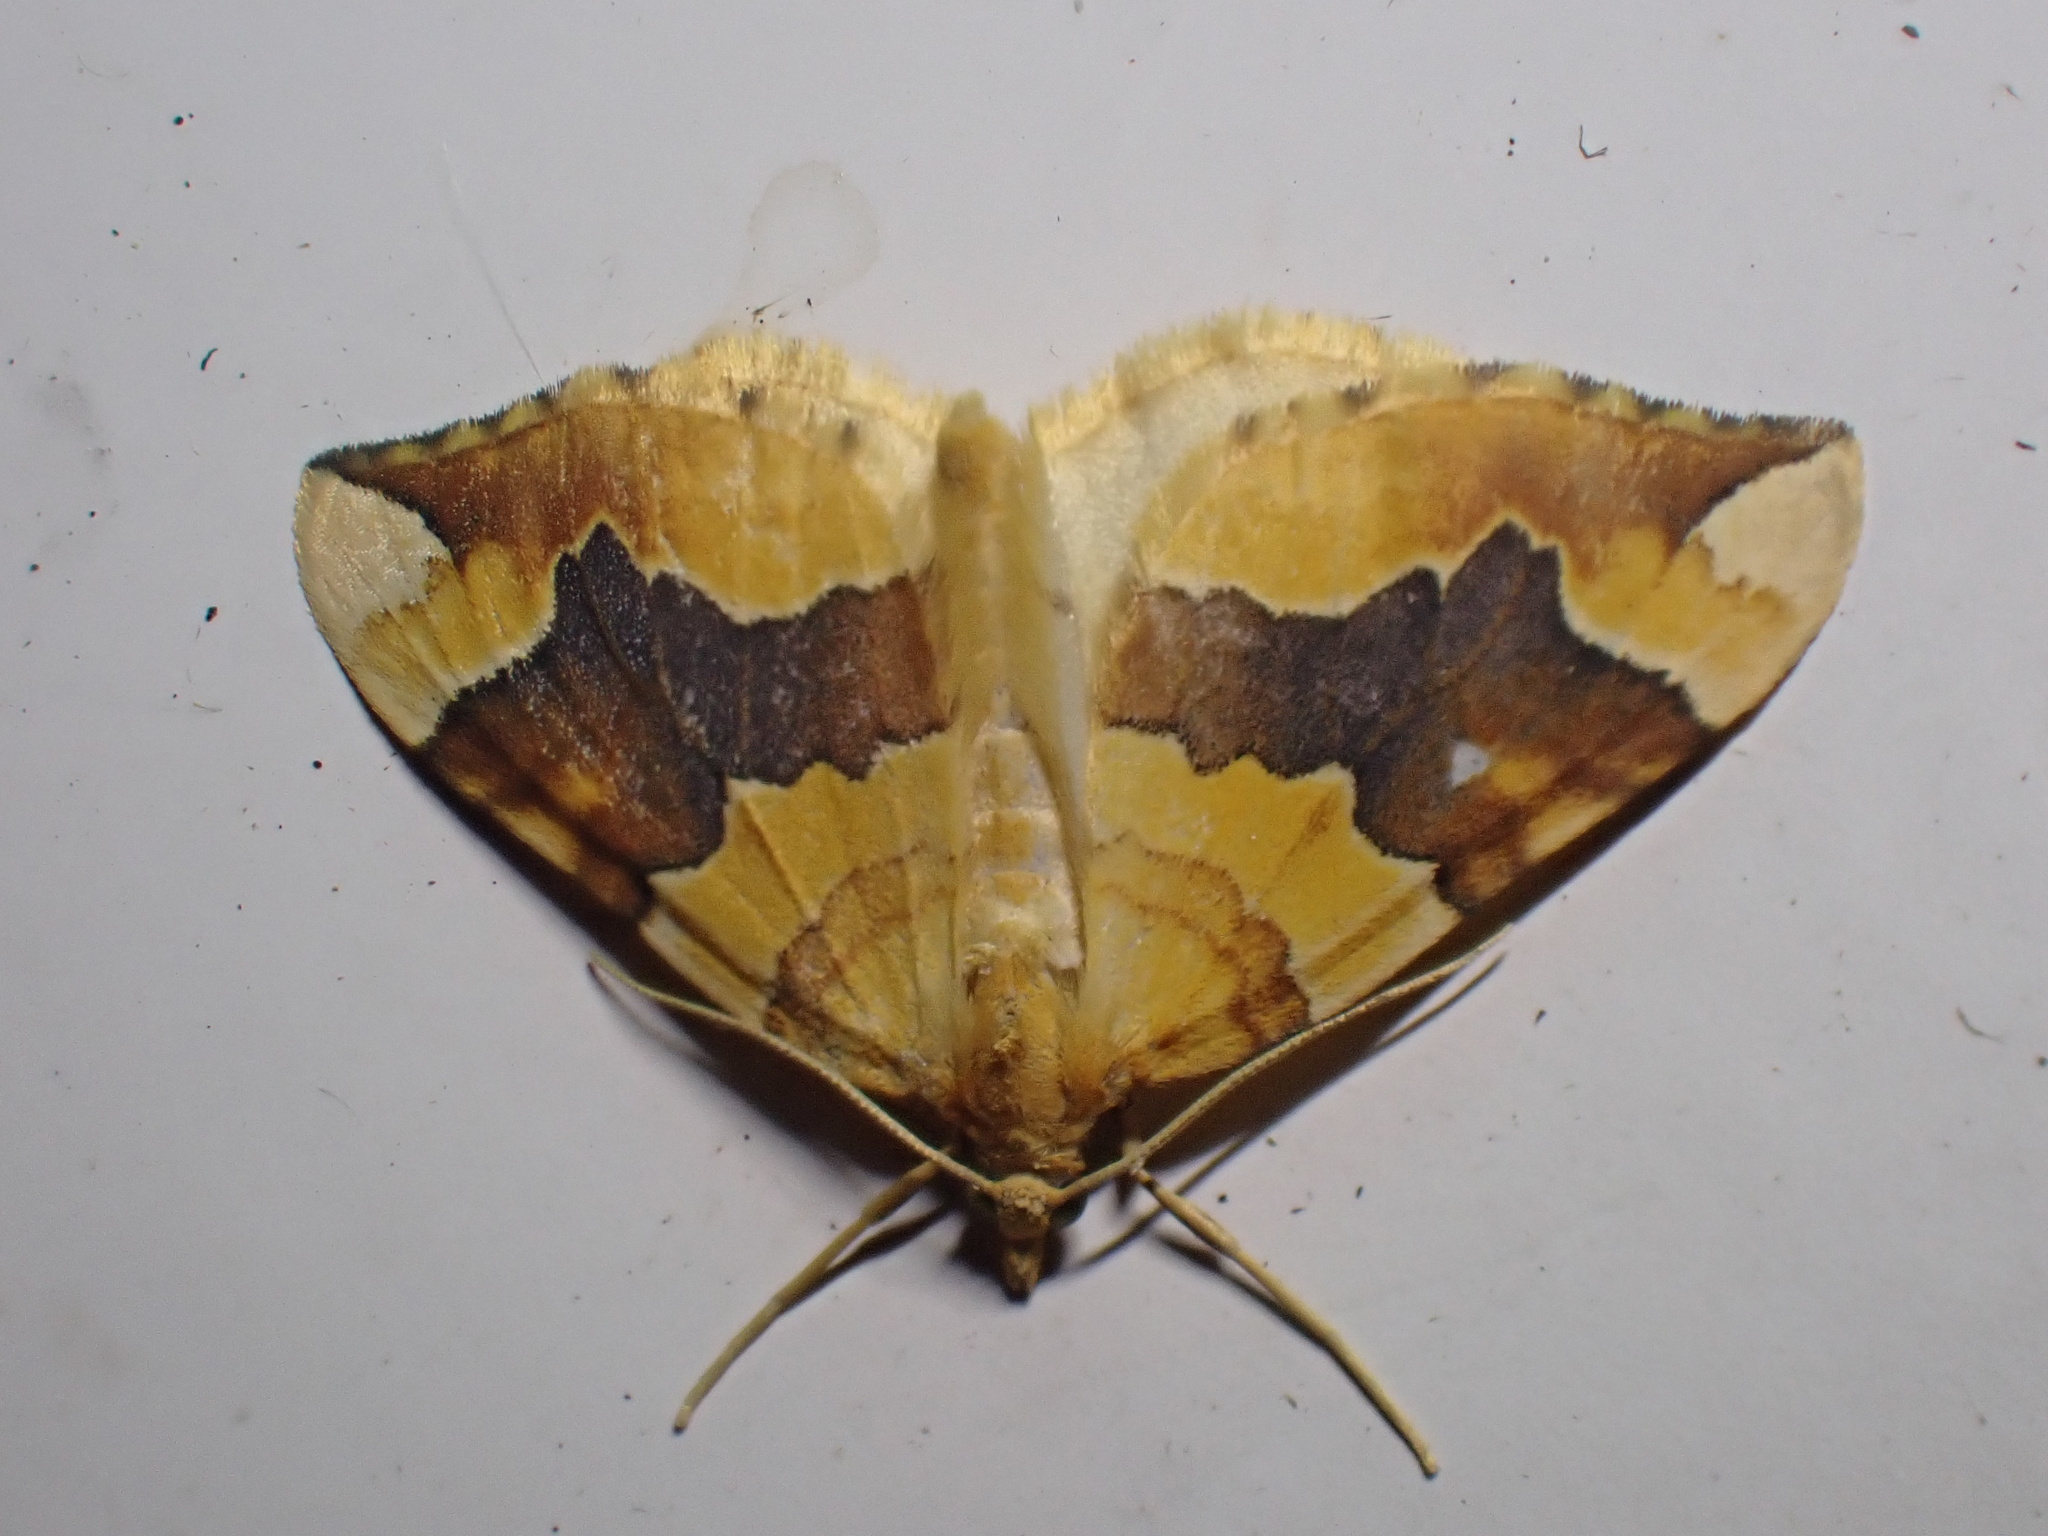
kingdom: Animalia
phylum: Arthropoda
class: Insecta
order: Lepidoptera
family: Geometridae
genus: Cidaria
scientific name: Cidaria fulvata
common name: Barred yellow
